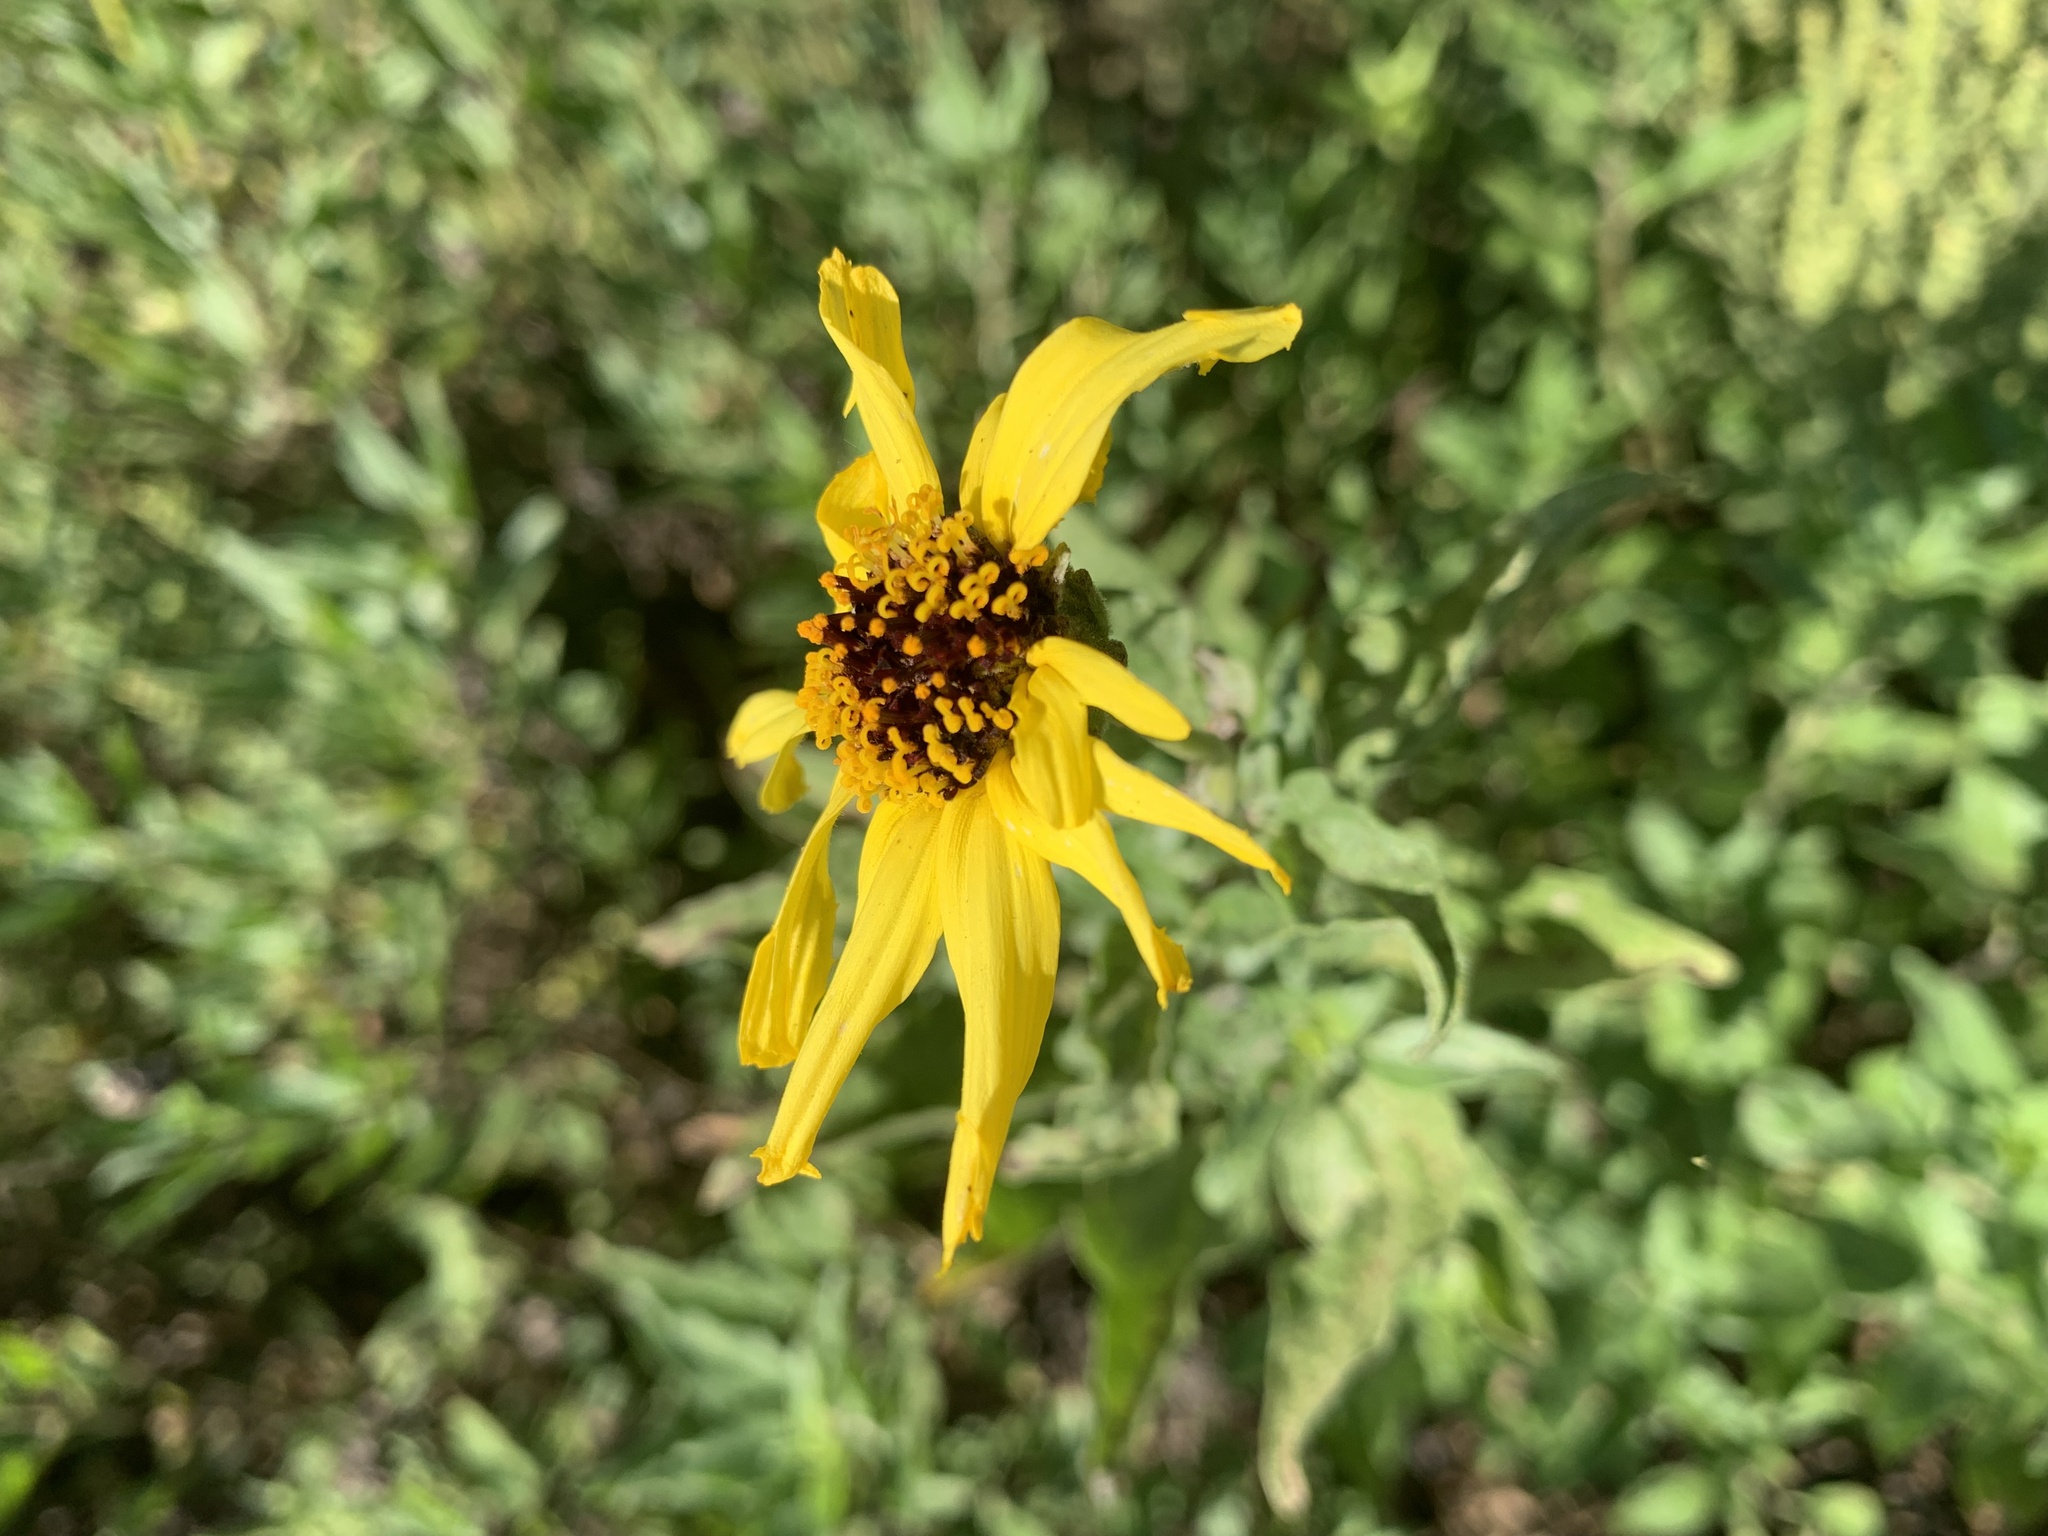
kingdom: Plantae
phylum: Tracheophyta
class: Magnoliopsida
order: Asterales
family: Asteraceae
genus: Encelia
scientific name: Encelia californica
